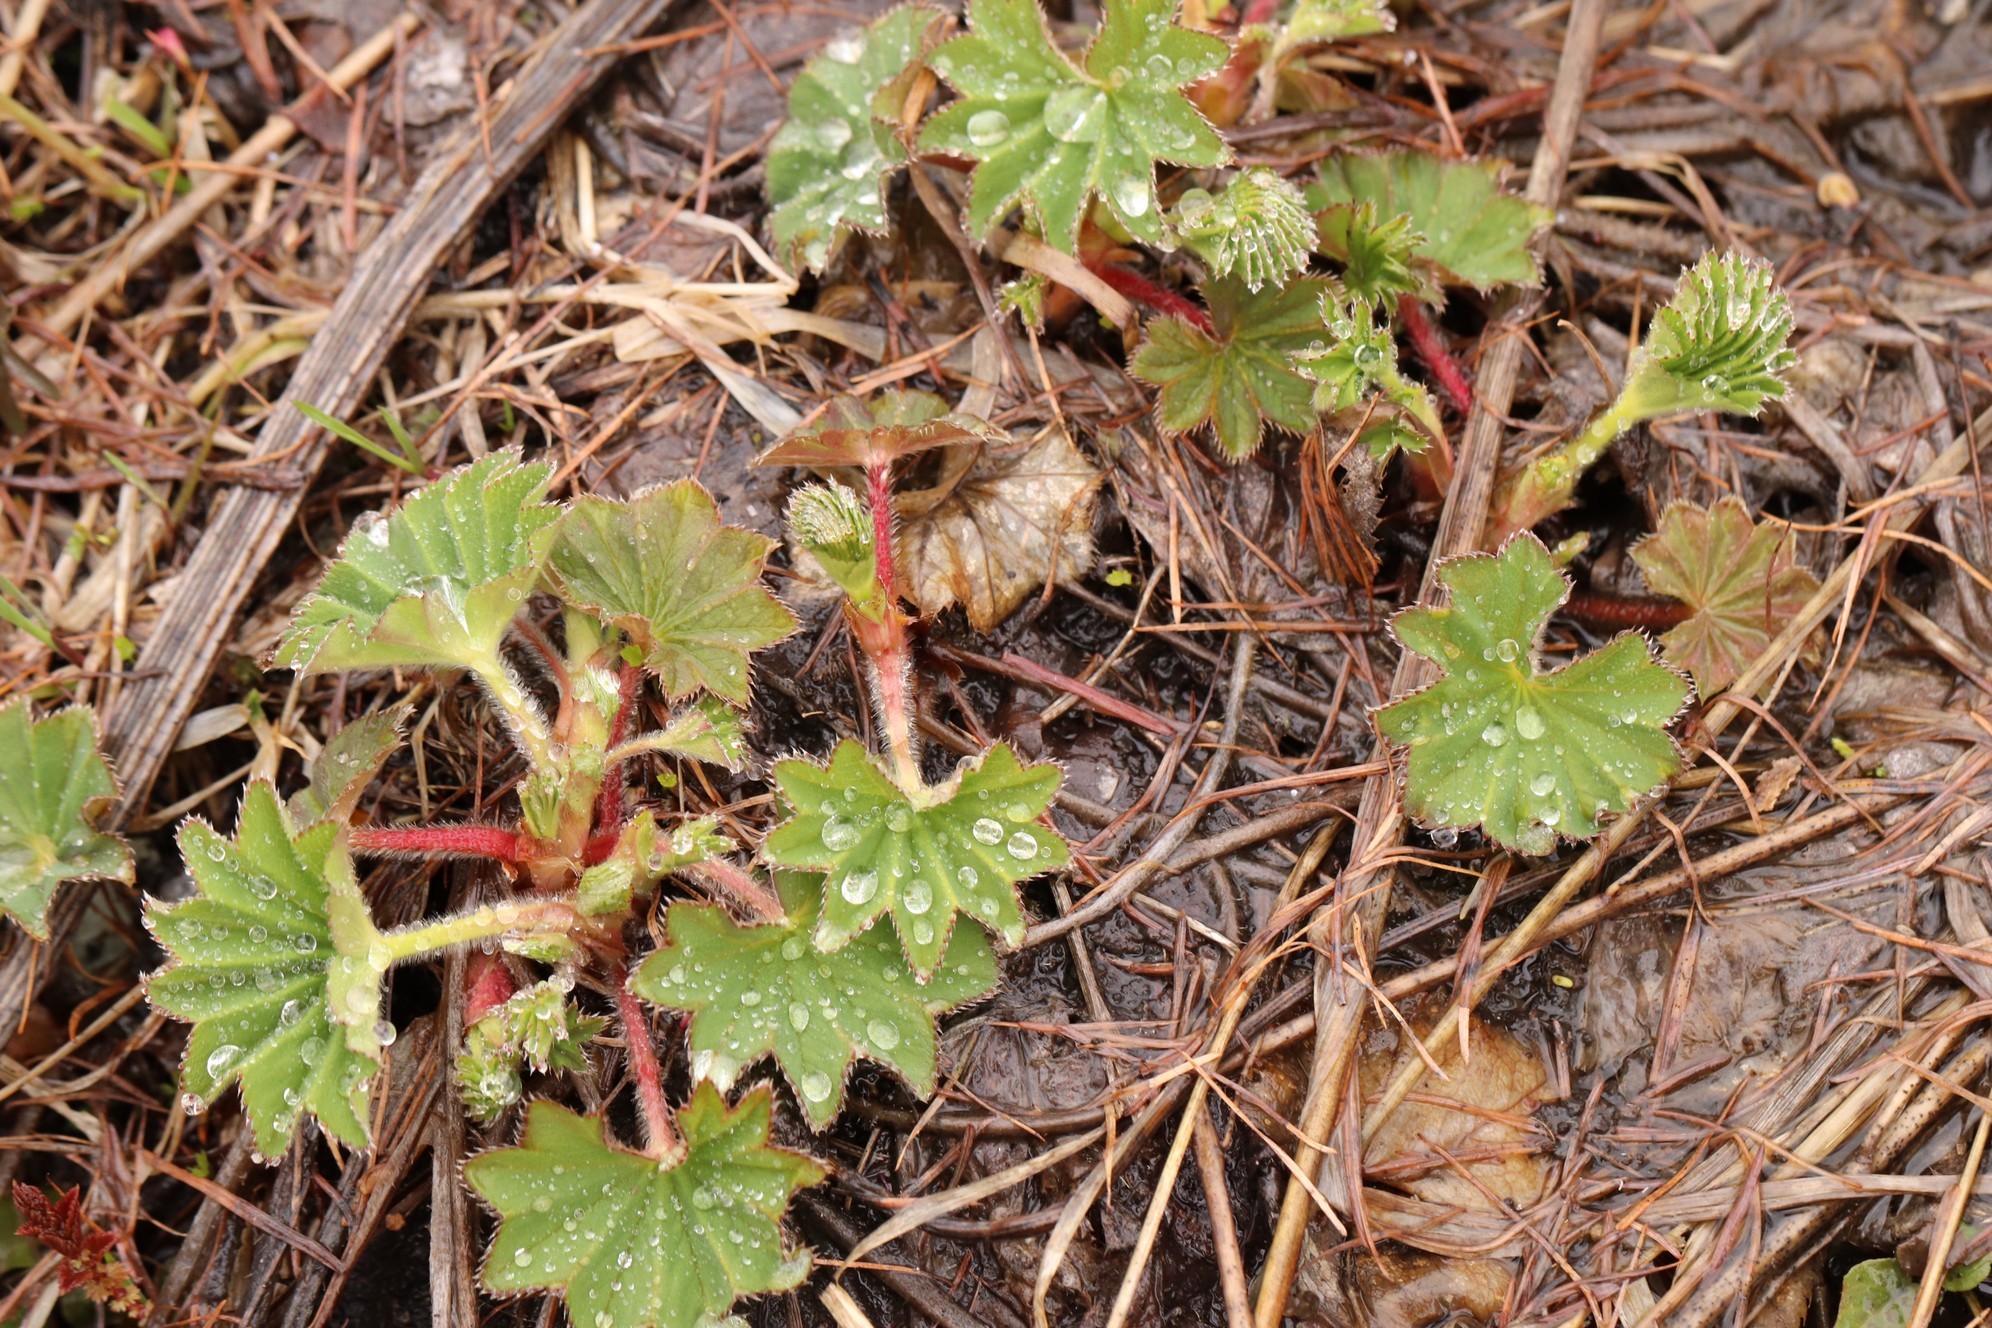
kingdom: Plantae
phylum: Tracheophyta
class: Magnoliopsida
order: Rosales
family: Rosaceae
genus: Alchemilla
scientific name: Alchemilla
